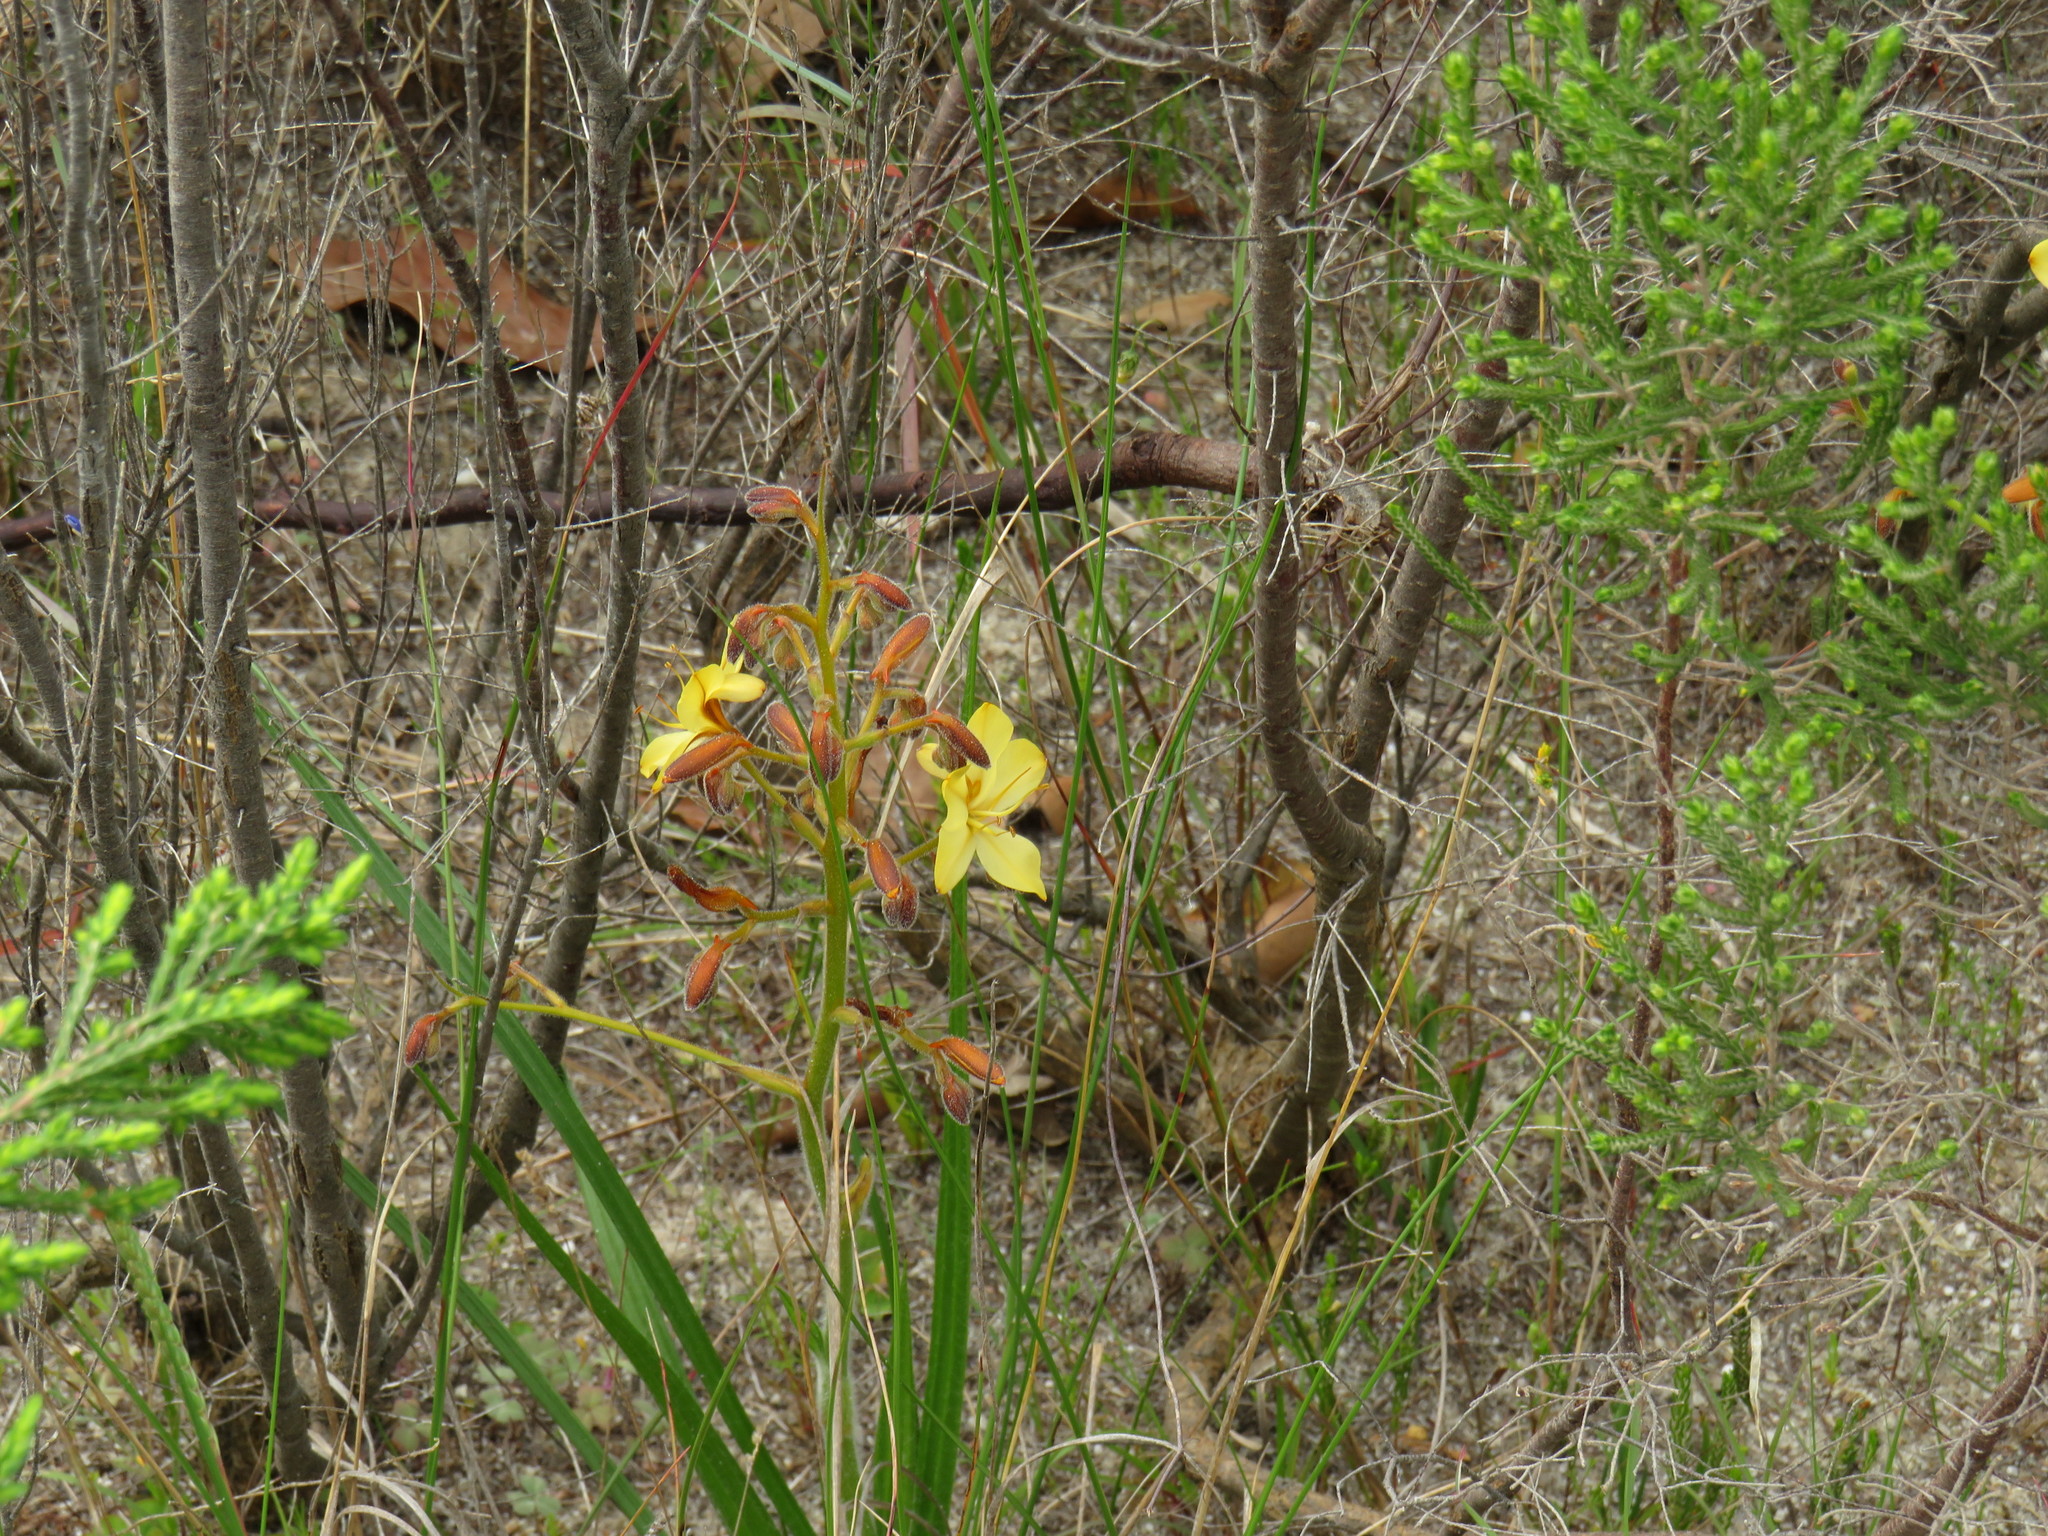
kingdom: Plantae
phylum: Tracheophyta
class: Liliopsida
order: Commelinales
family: Haemodoraceae
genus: Wachendorfia
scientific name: Wachendorfia paniculata
